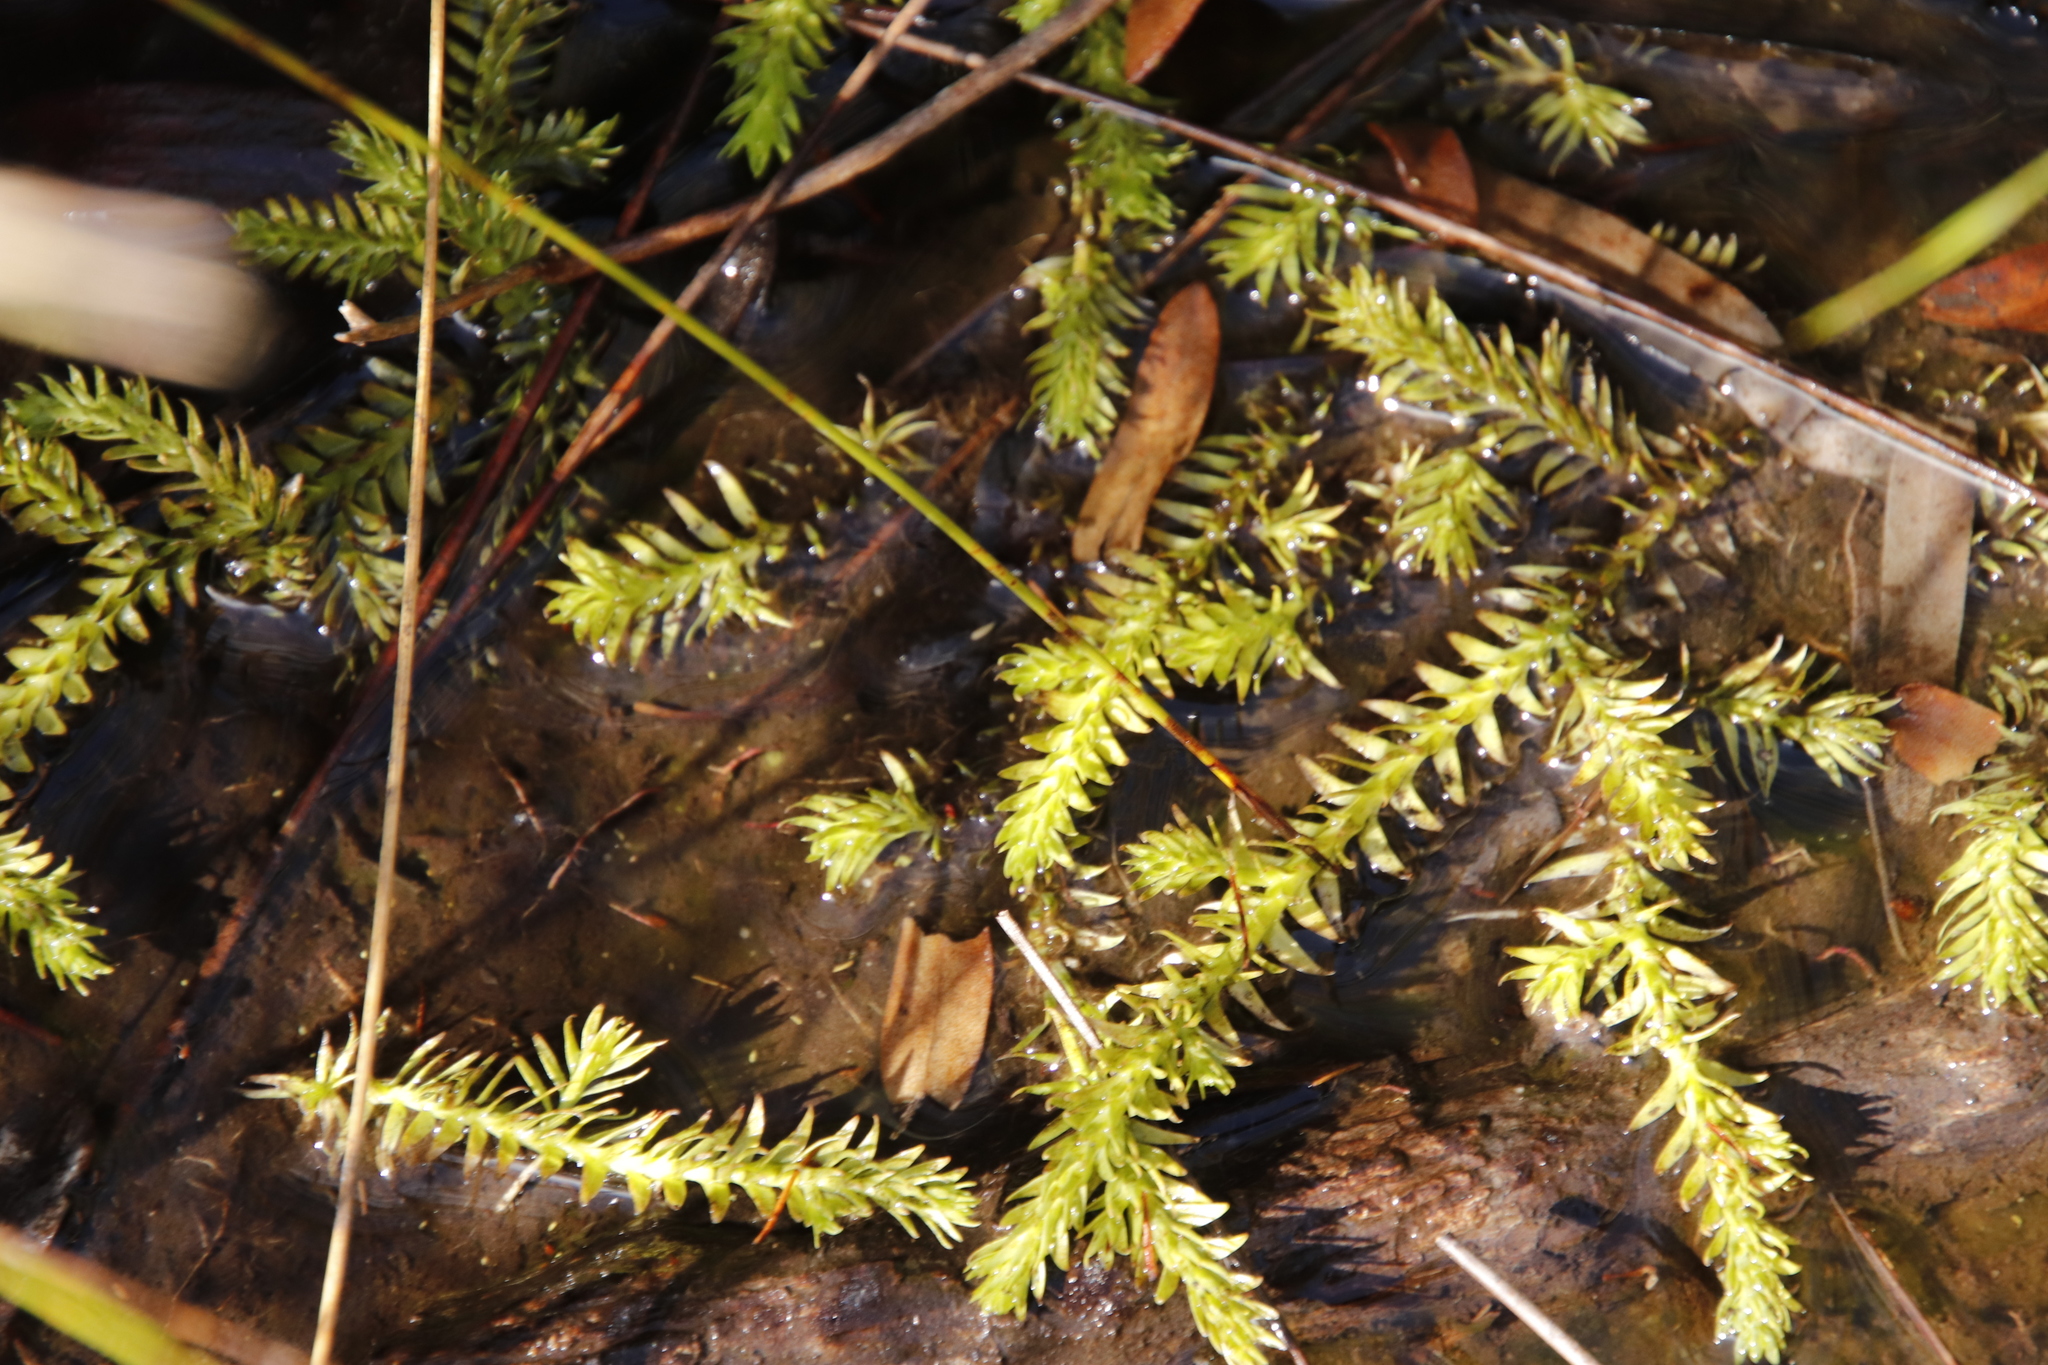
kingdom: Plantae
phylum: Tracheophyta
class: Lycopodiopsida
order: Lycopodiales
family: Lycopodiaceae
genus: Pseudolycopodiella
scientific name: Pseudolycopodiella caroliniana
